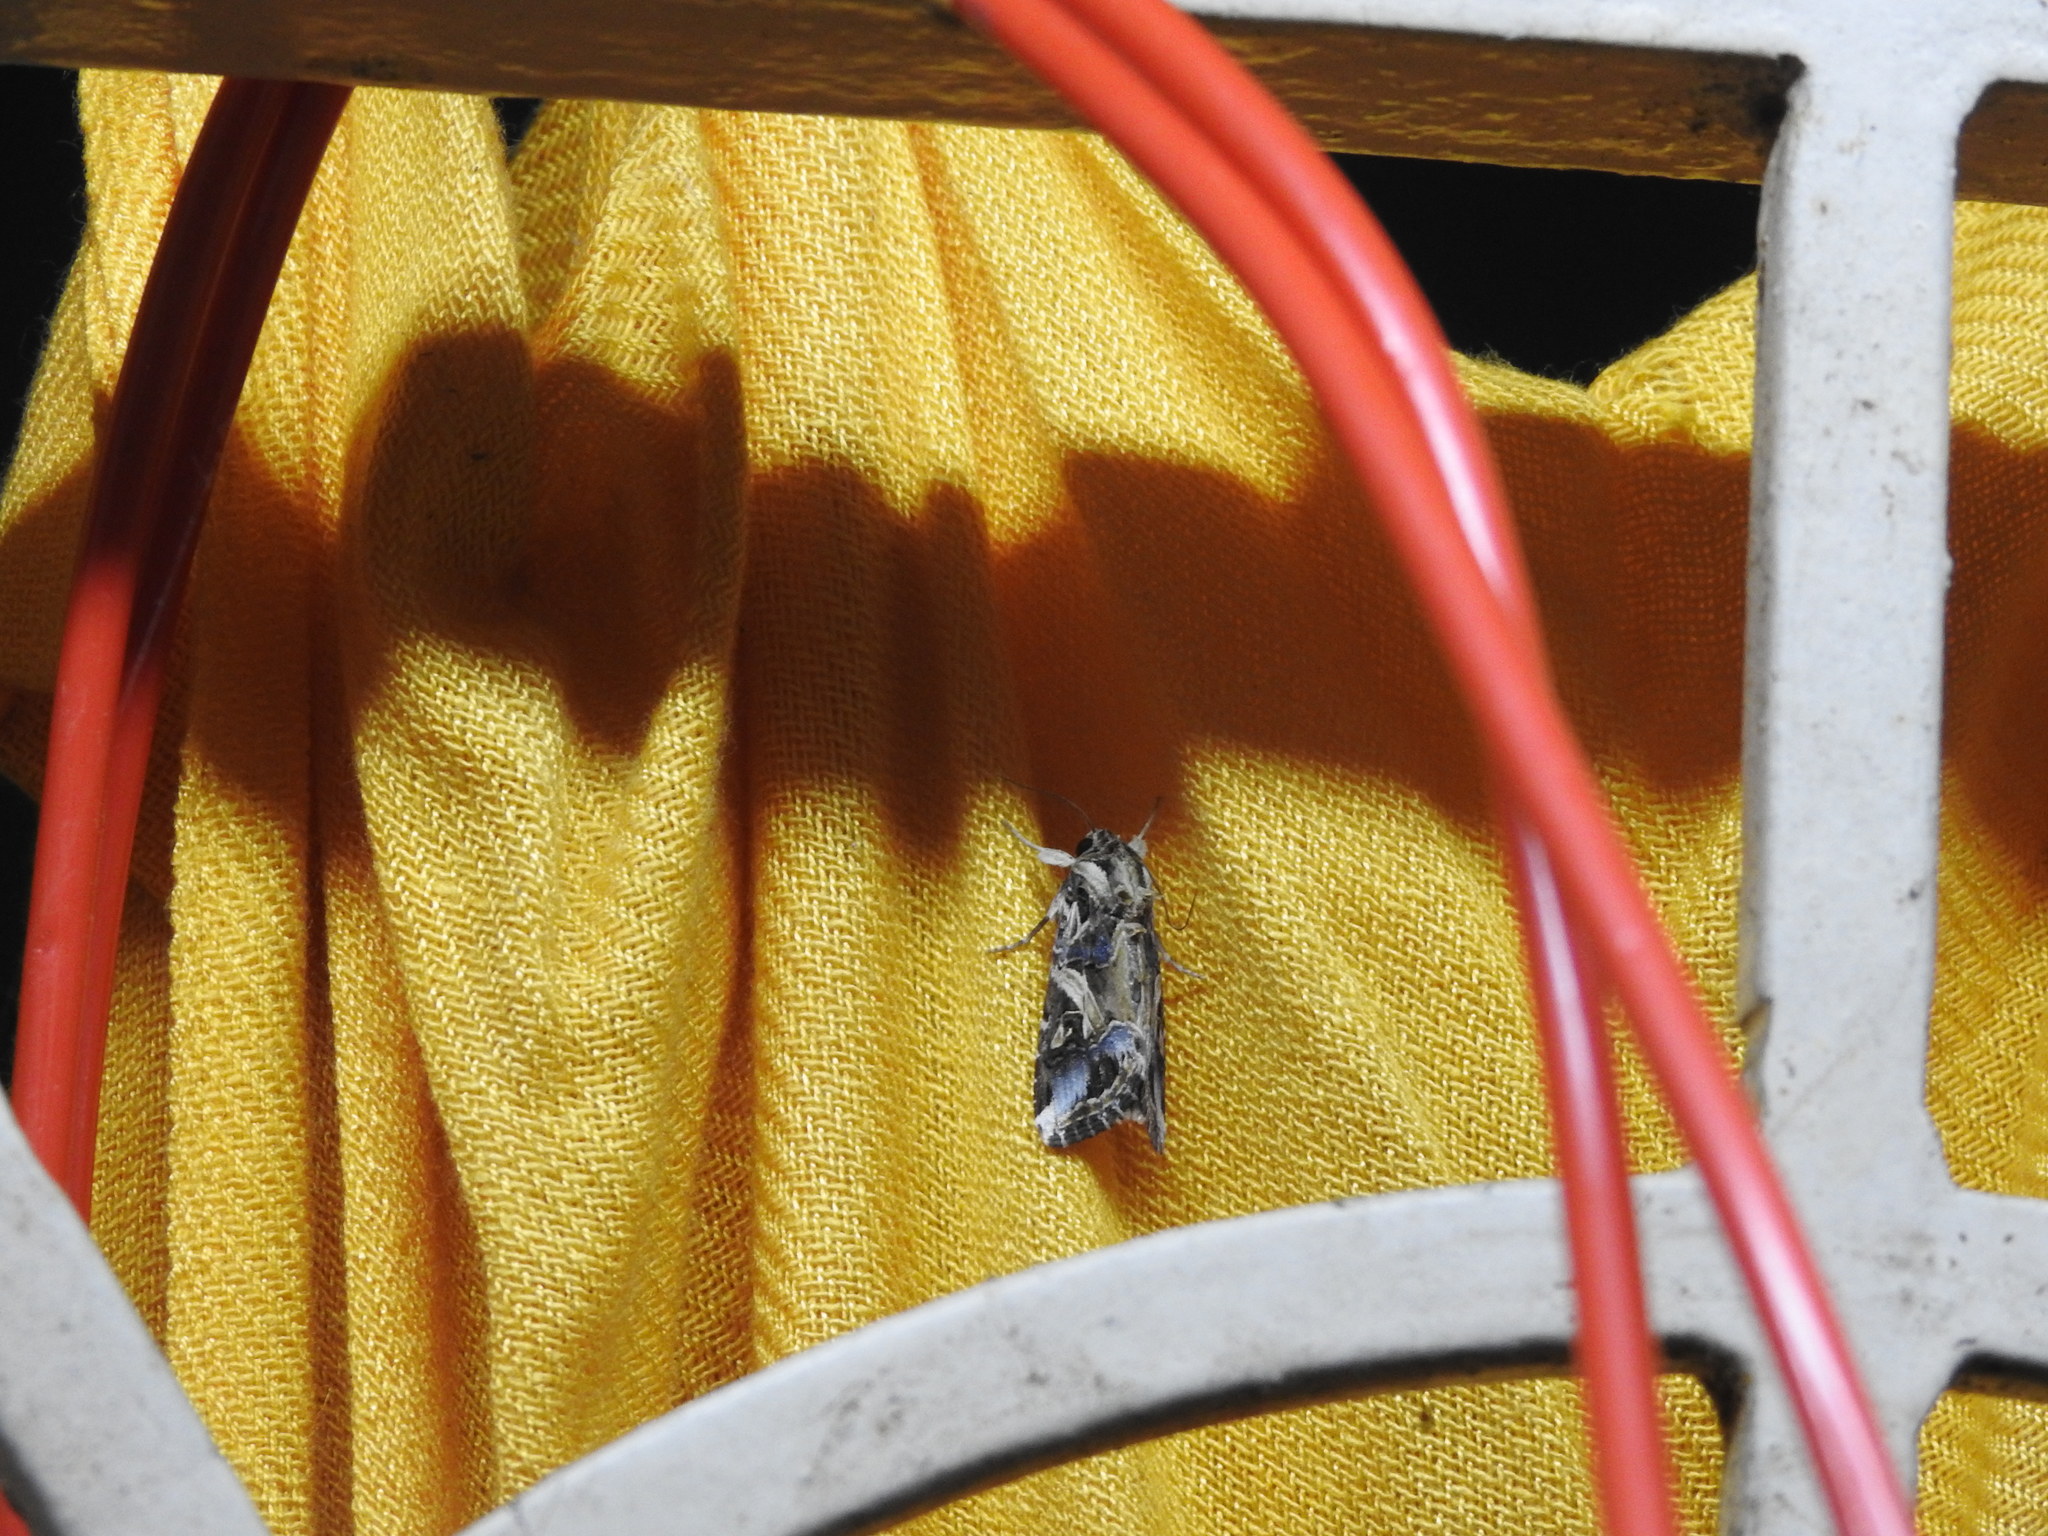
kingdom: Animalia
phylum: Arthropoda
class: Insecta
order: Lepidoptera
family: Noctuidae
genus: Spodoptera
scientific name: Spodoptera litura
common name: Asian cotton leafworm
